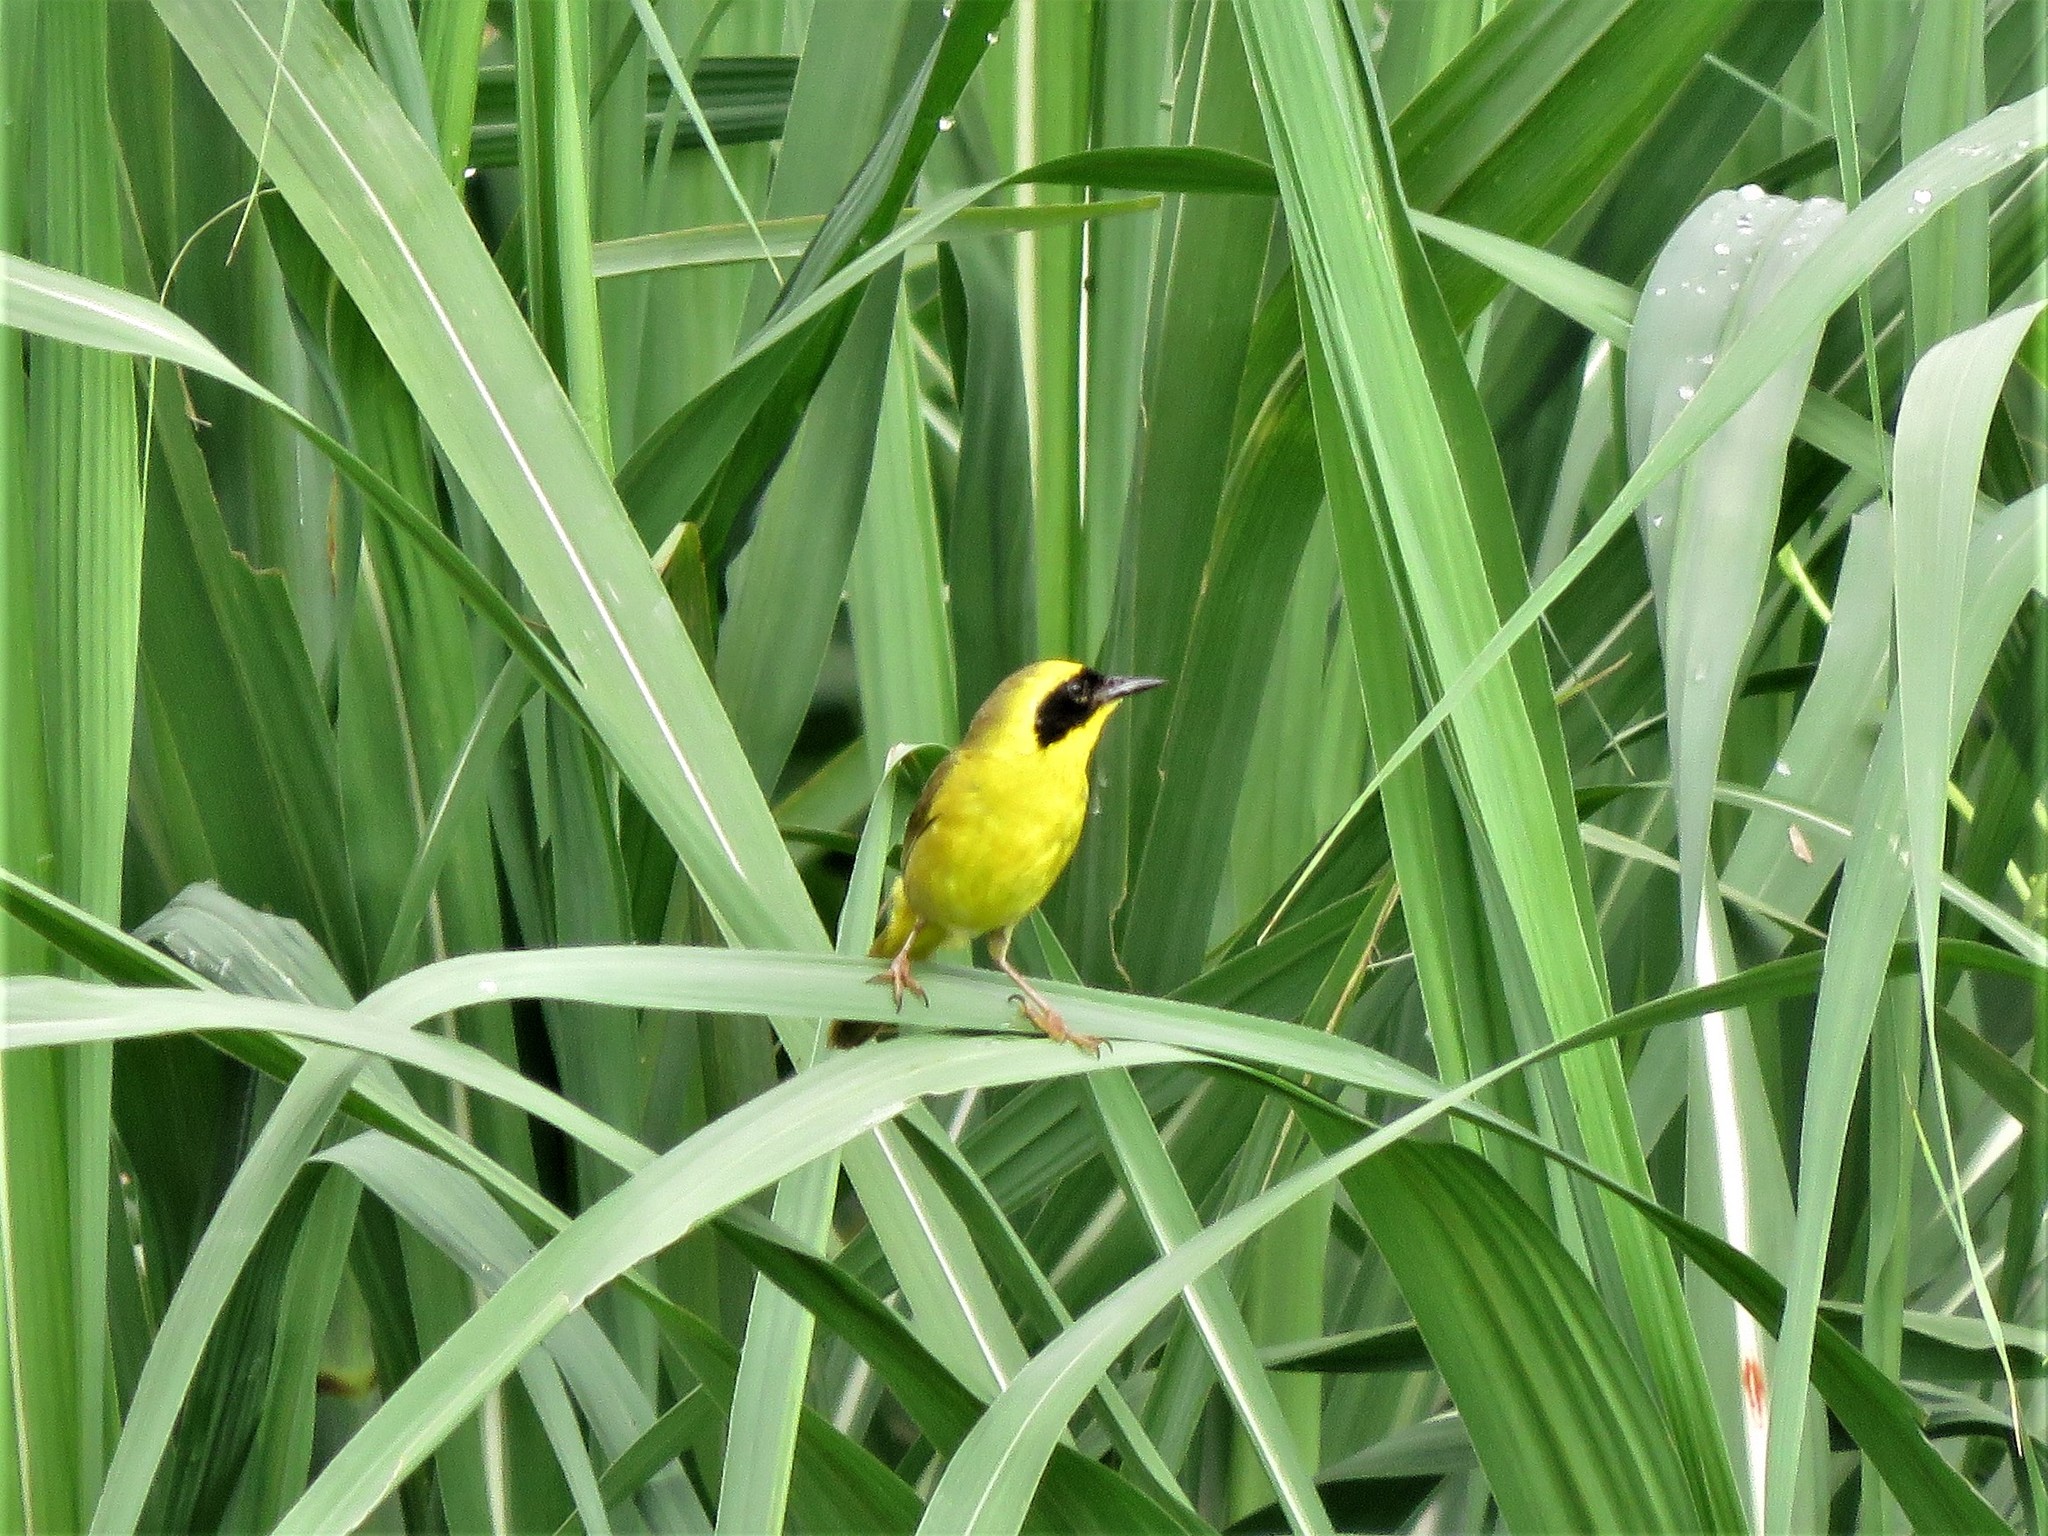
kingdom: Animalia
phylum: Chordata
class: Aves
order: Passeriformes
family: Parulidae
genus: Geothlypis
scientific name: Geothlypis flavovelata
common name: Altamira yellowthroat
